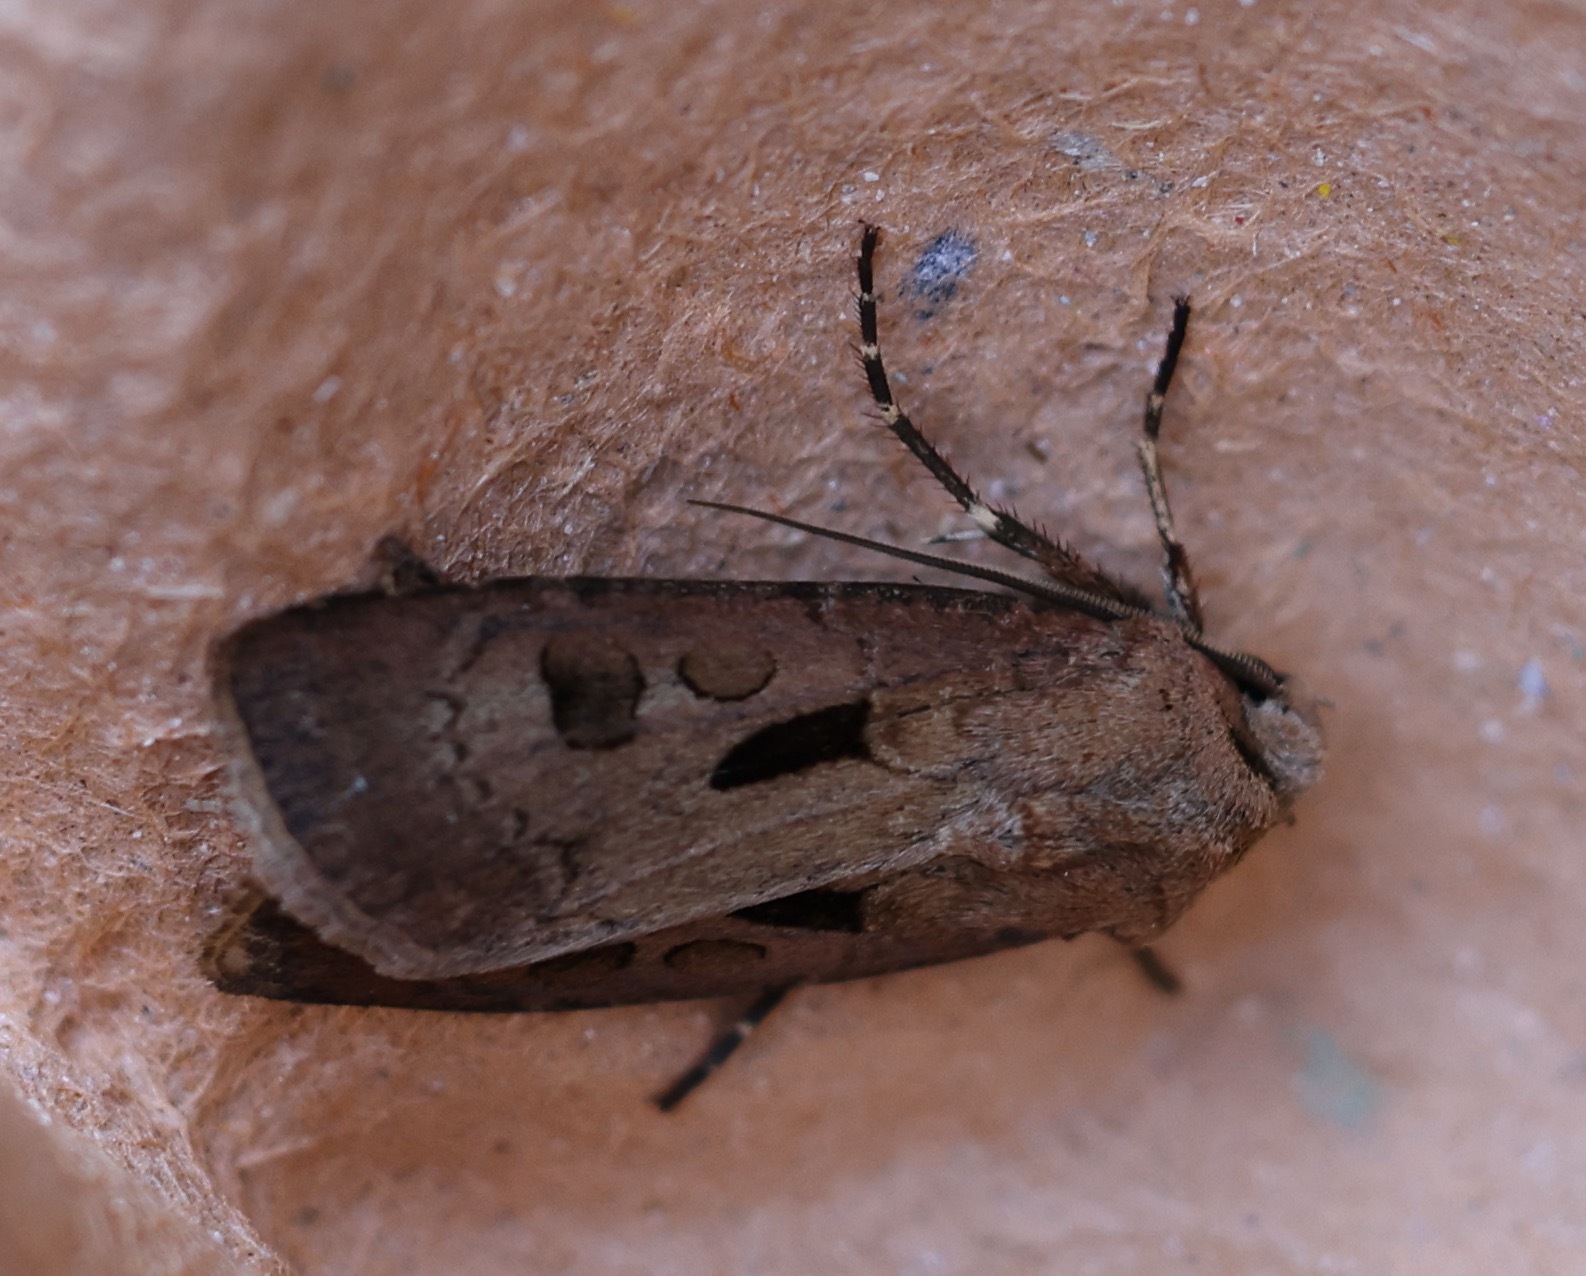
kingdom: Animalia
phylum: Arthropoda
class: Insecta
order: Lepidoptera
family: Noctuidae
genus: Agrotis
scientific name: Agrotis exclamationis
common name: Heart and dart
